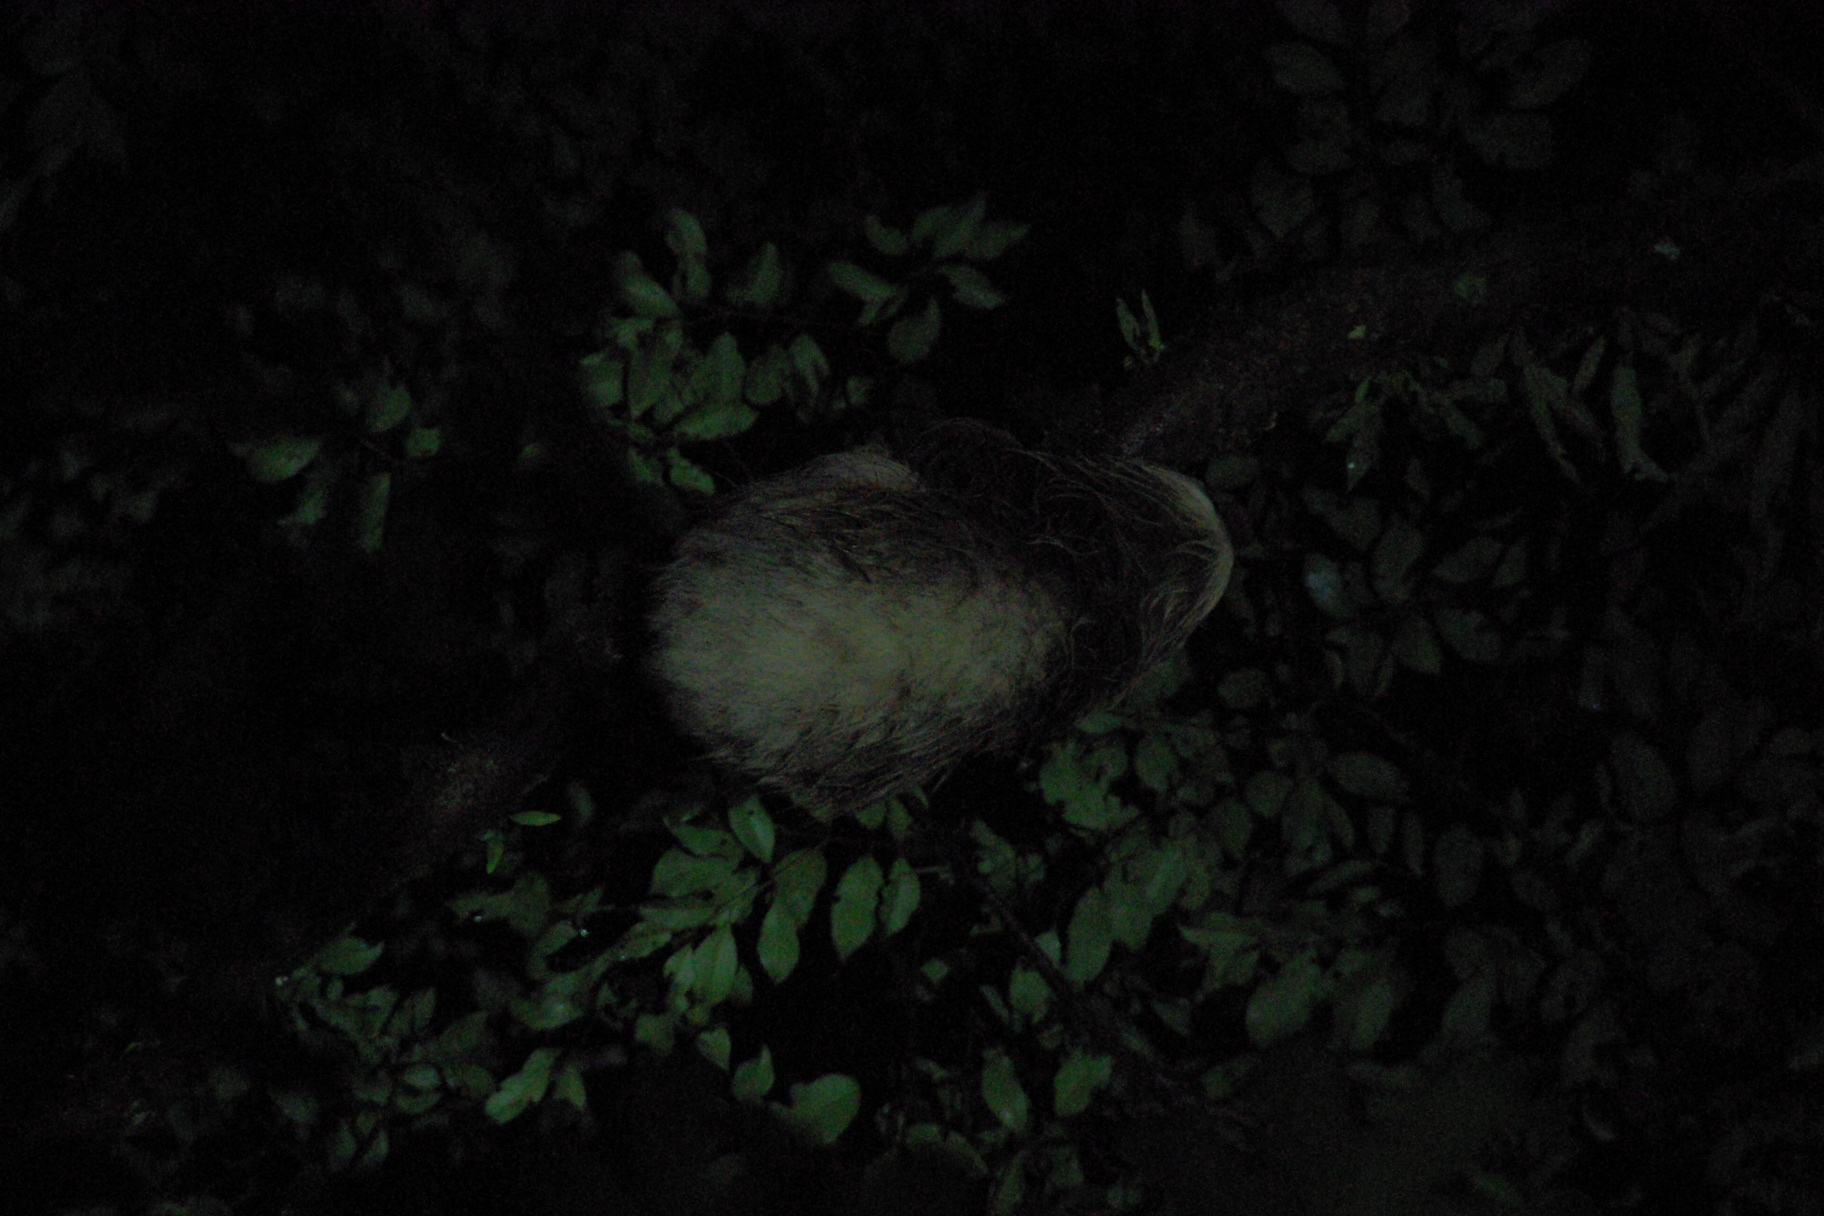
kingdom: Animalia
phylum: Chordata
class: Mammalia
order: Pilosa
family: Megalonychidae
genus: Choloepus
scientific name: Choloepus hoffmanni
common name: Hoffmann's two-toed sloth
